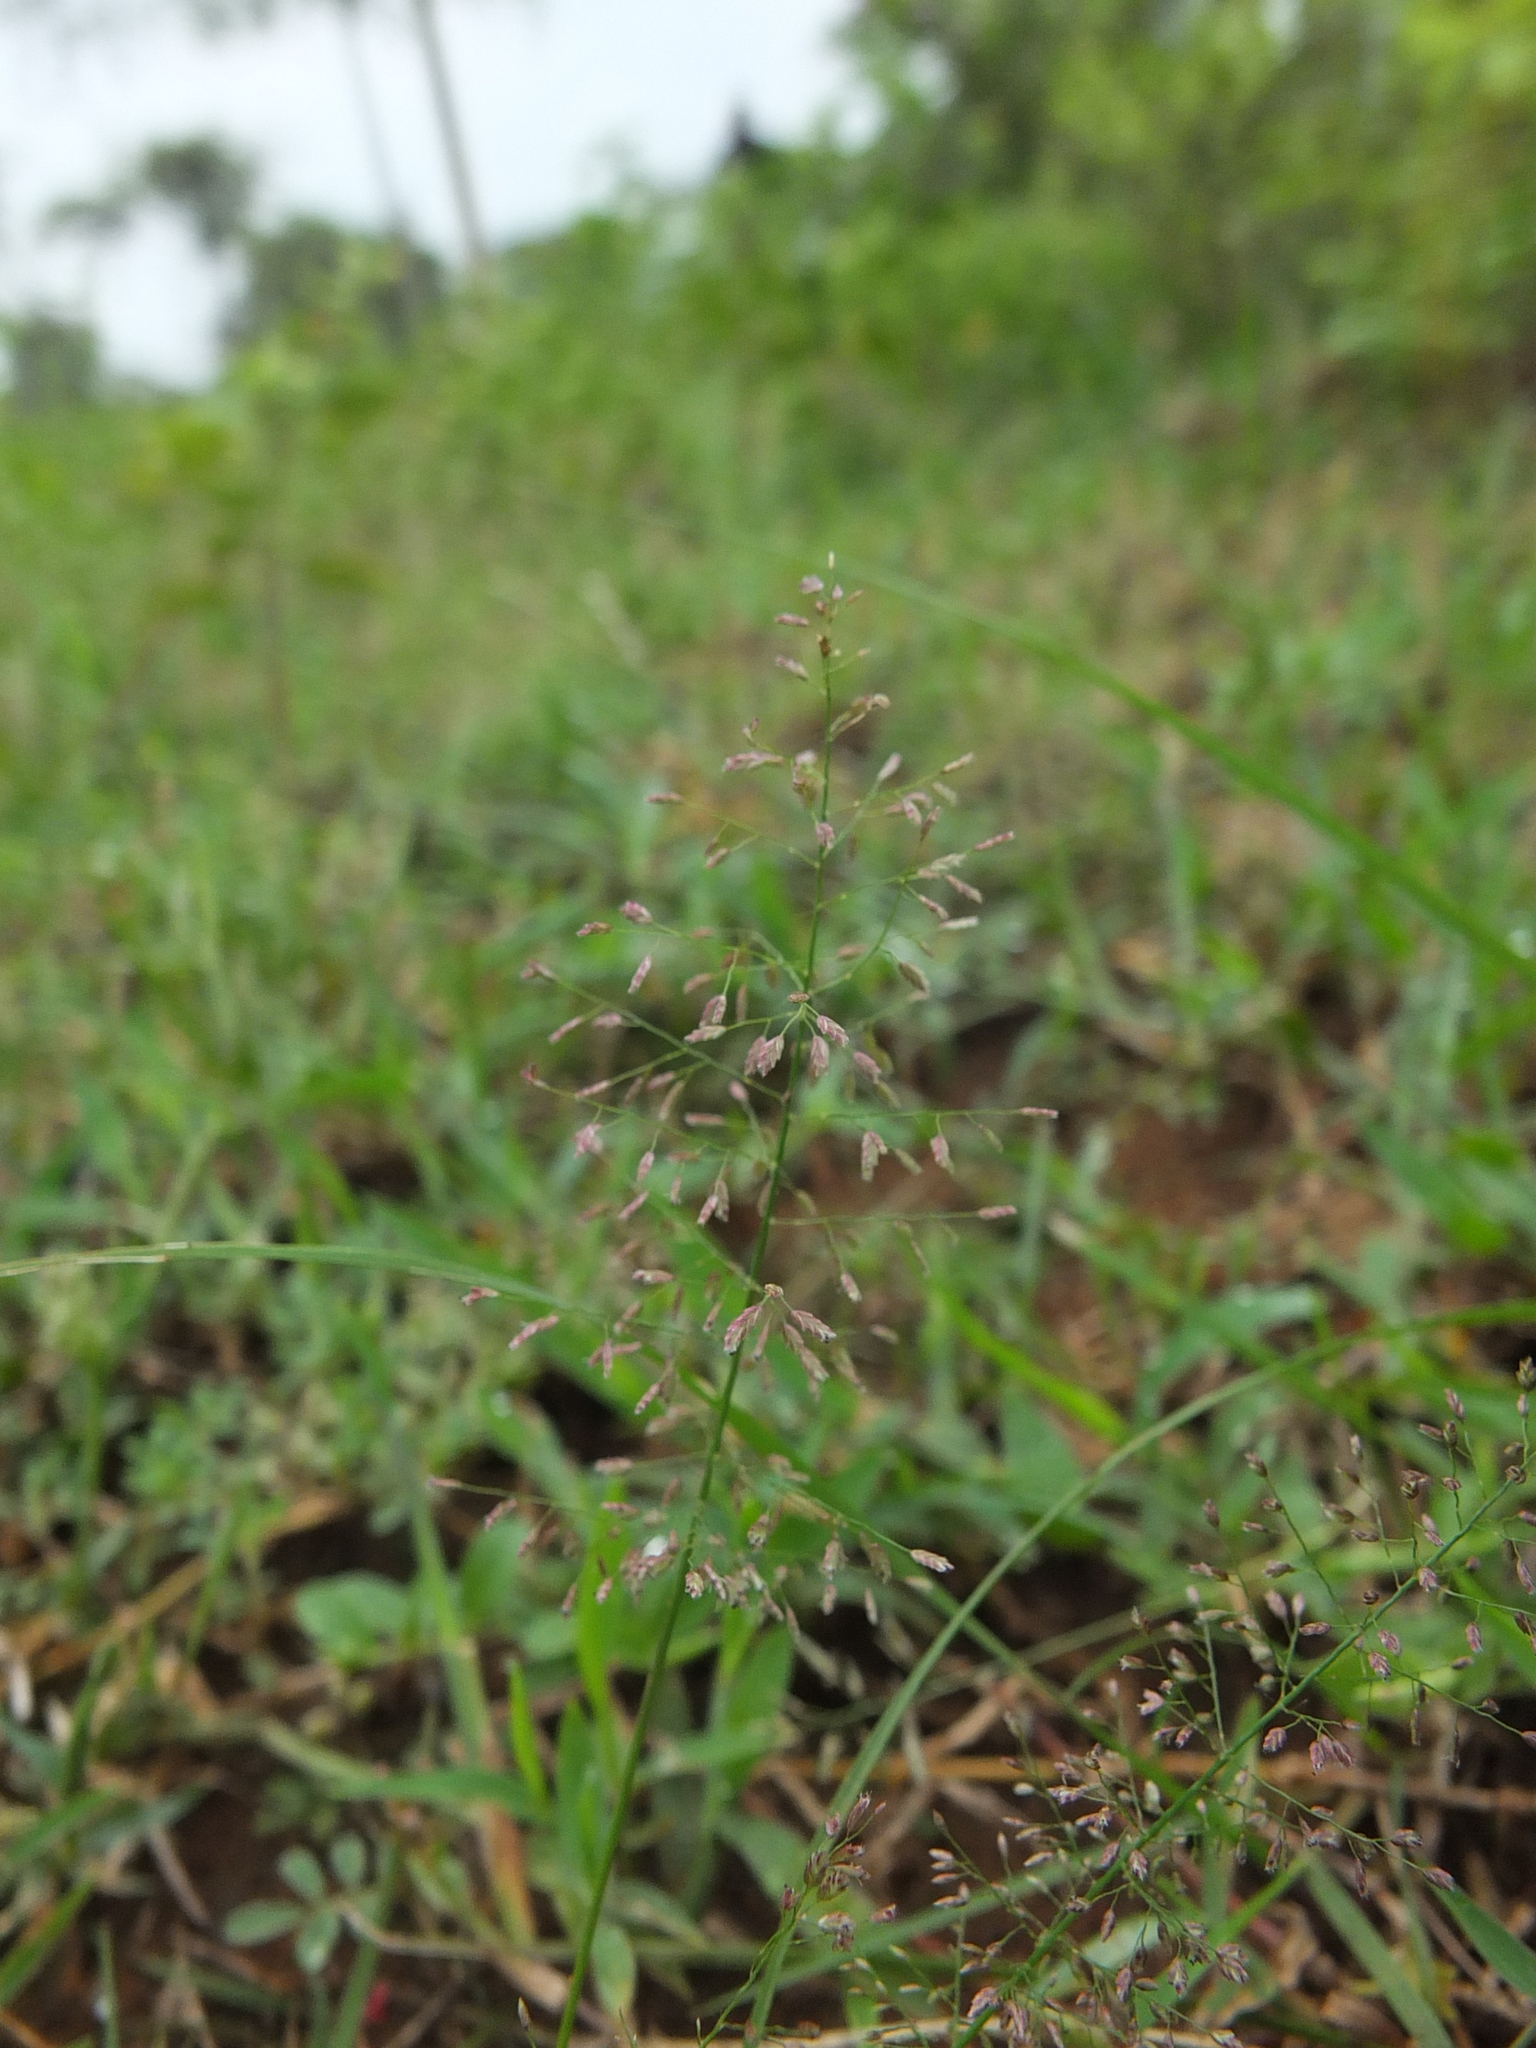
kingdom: Plantae
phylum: Tracheophyta
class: Liliopsida
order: Poales
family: Poaceae
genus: Eragrostis
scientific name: Eragrostis tenella
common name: Japanese lovegrass
